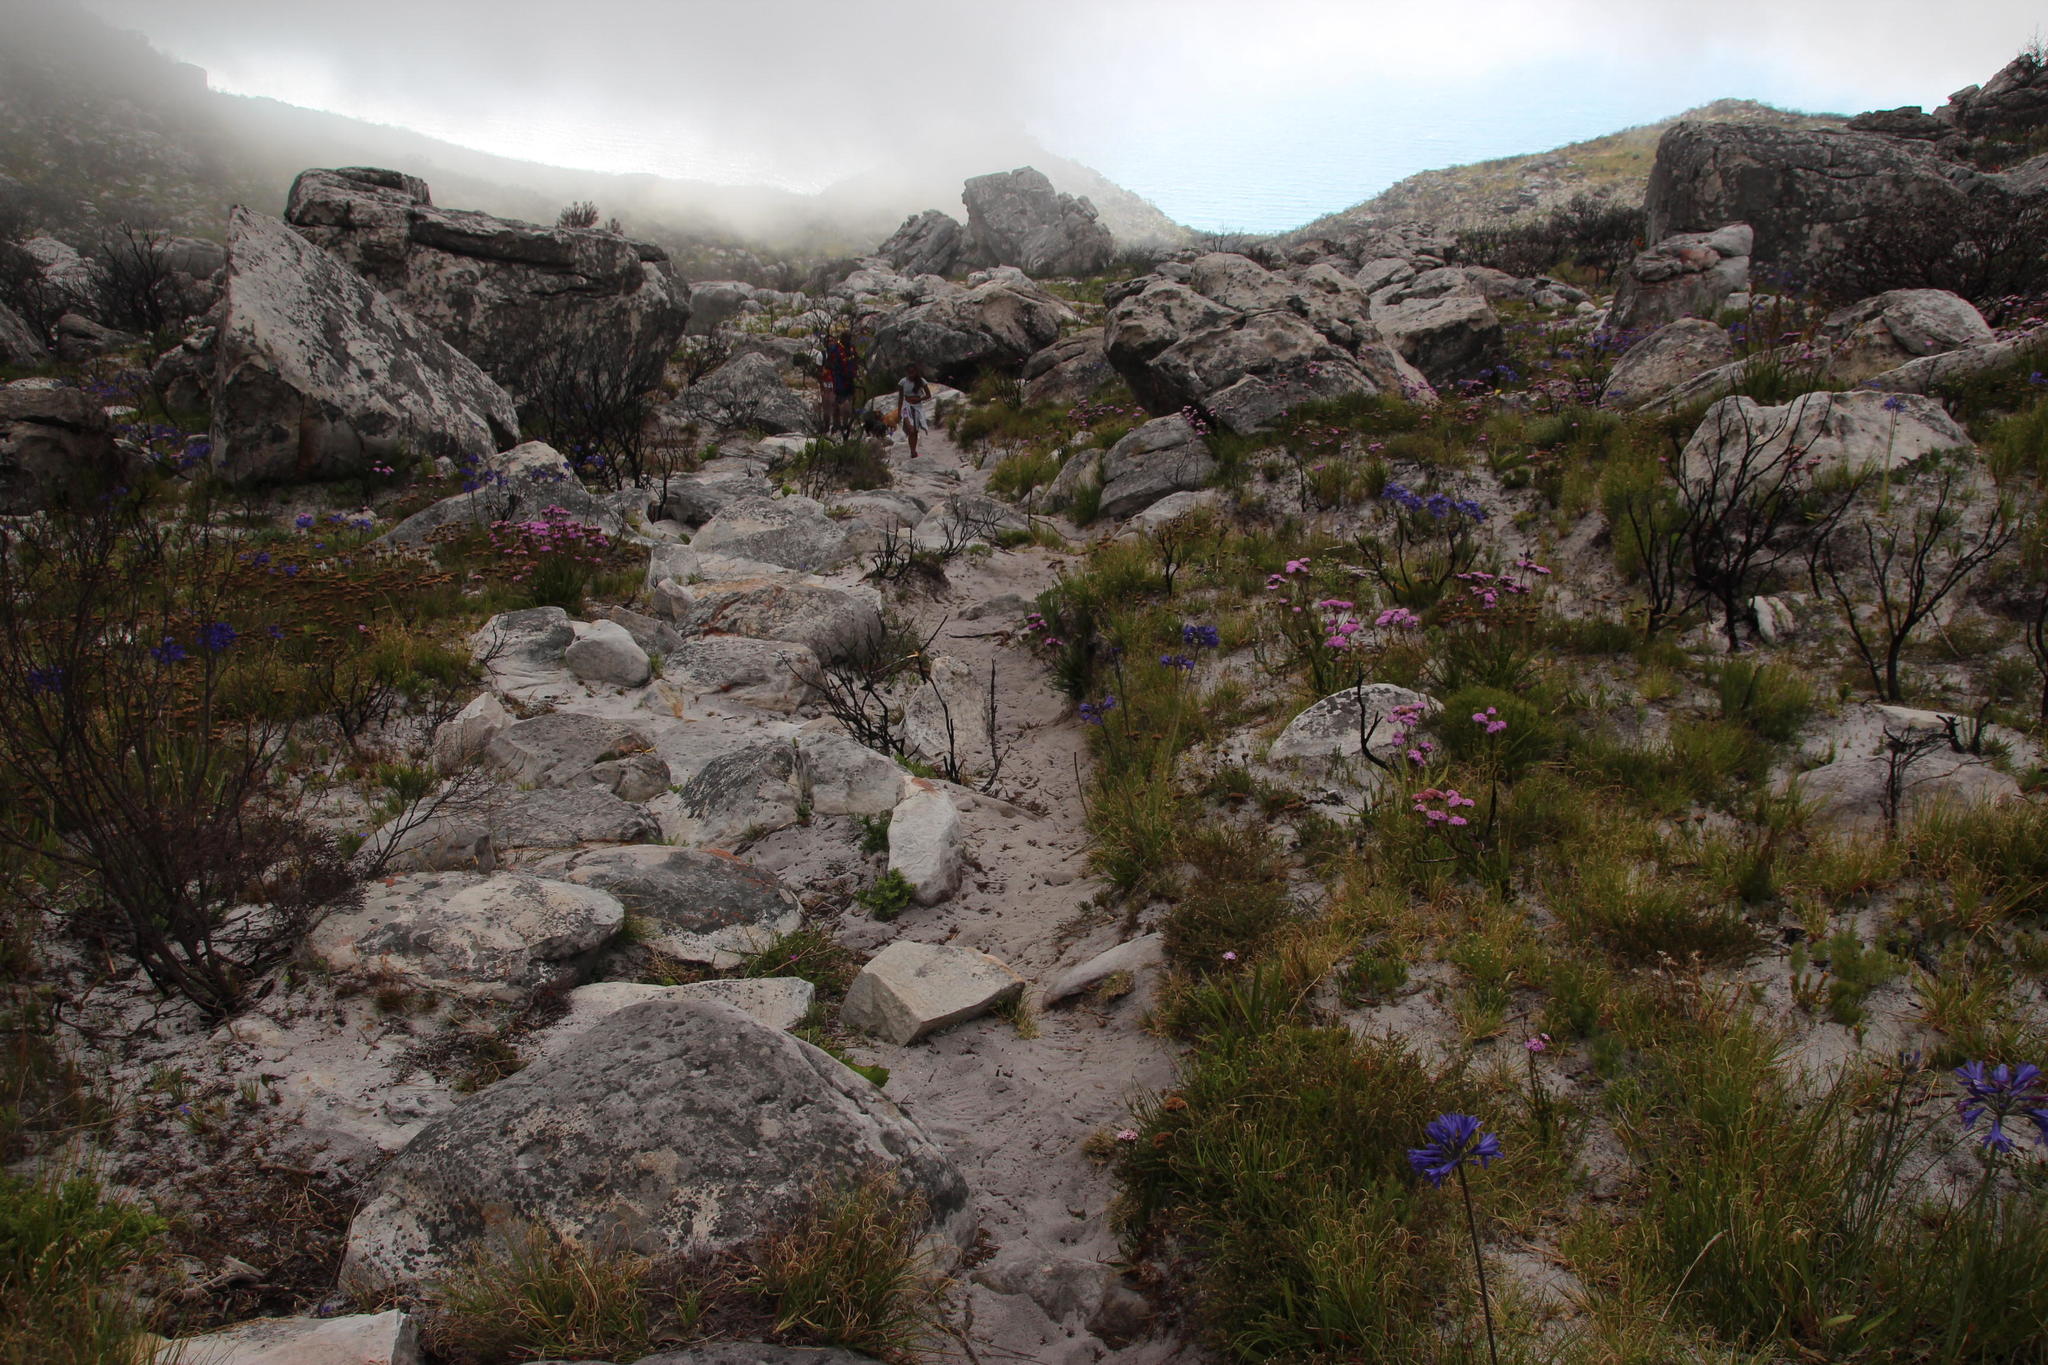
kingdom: Plantae
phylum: Tracheophyta
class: Liliopsida
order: Asparagales
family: Amaryllidaceae
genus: Agapanthus
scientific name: Agapanthus africanus
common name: Lily-of-the-nile
